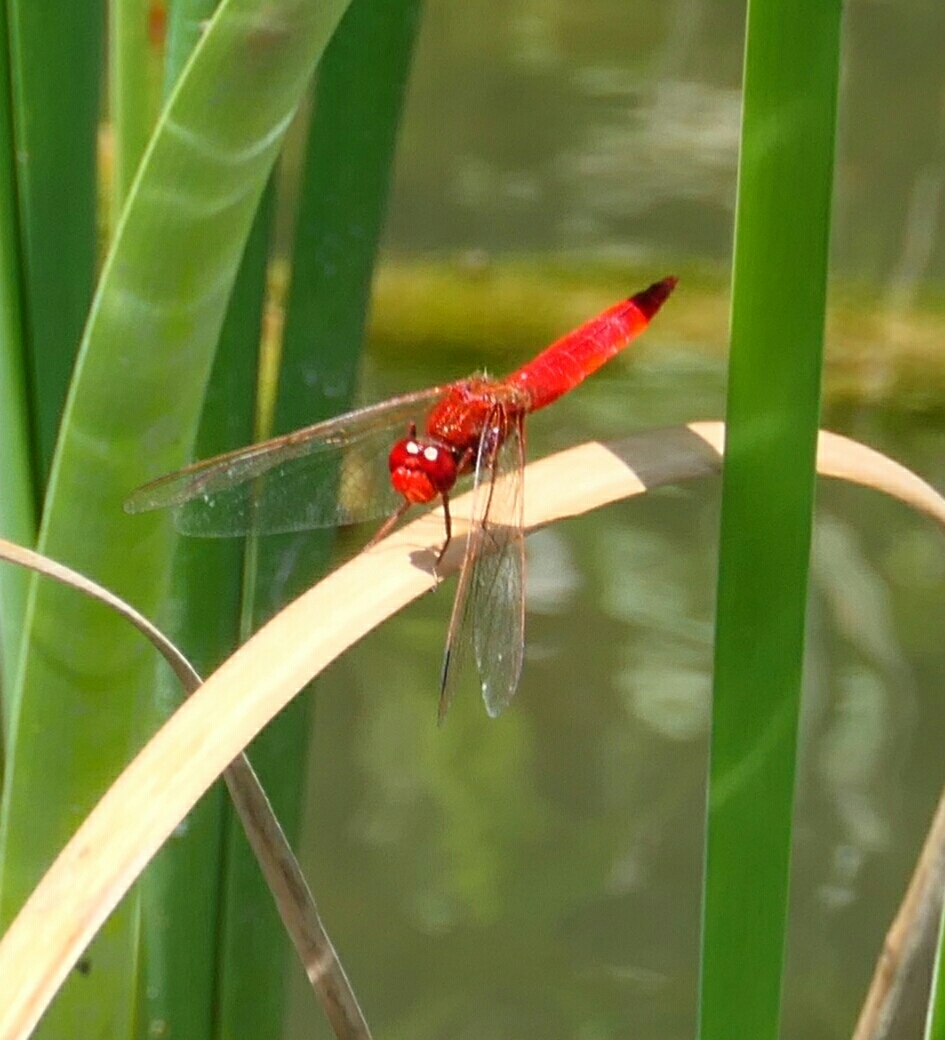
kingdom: Animalia
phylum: Arthropoda
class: Insecta
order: Odonata
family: Libellulidae
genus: Crocothemis
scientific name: Crocothemis erythraea
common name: Scarlet dragonfly
